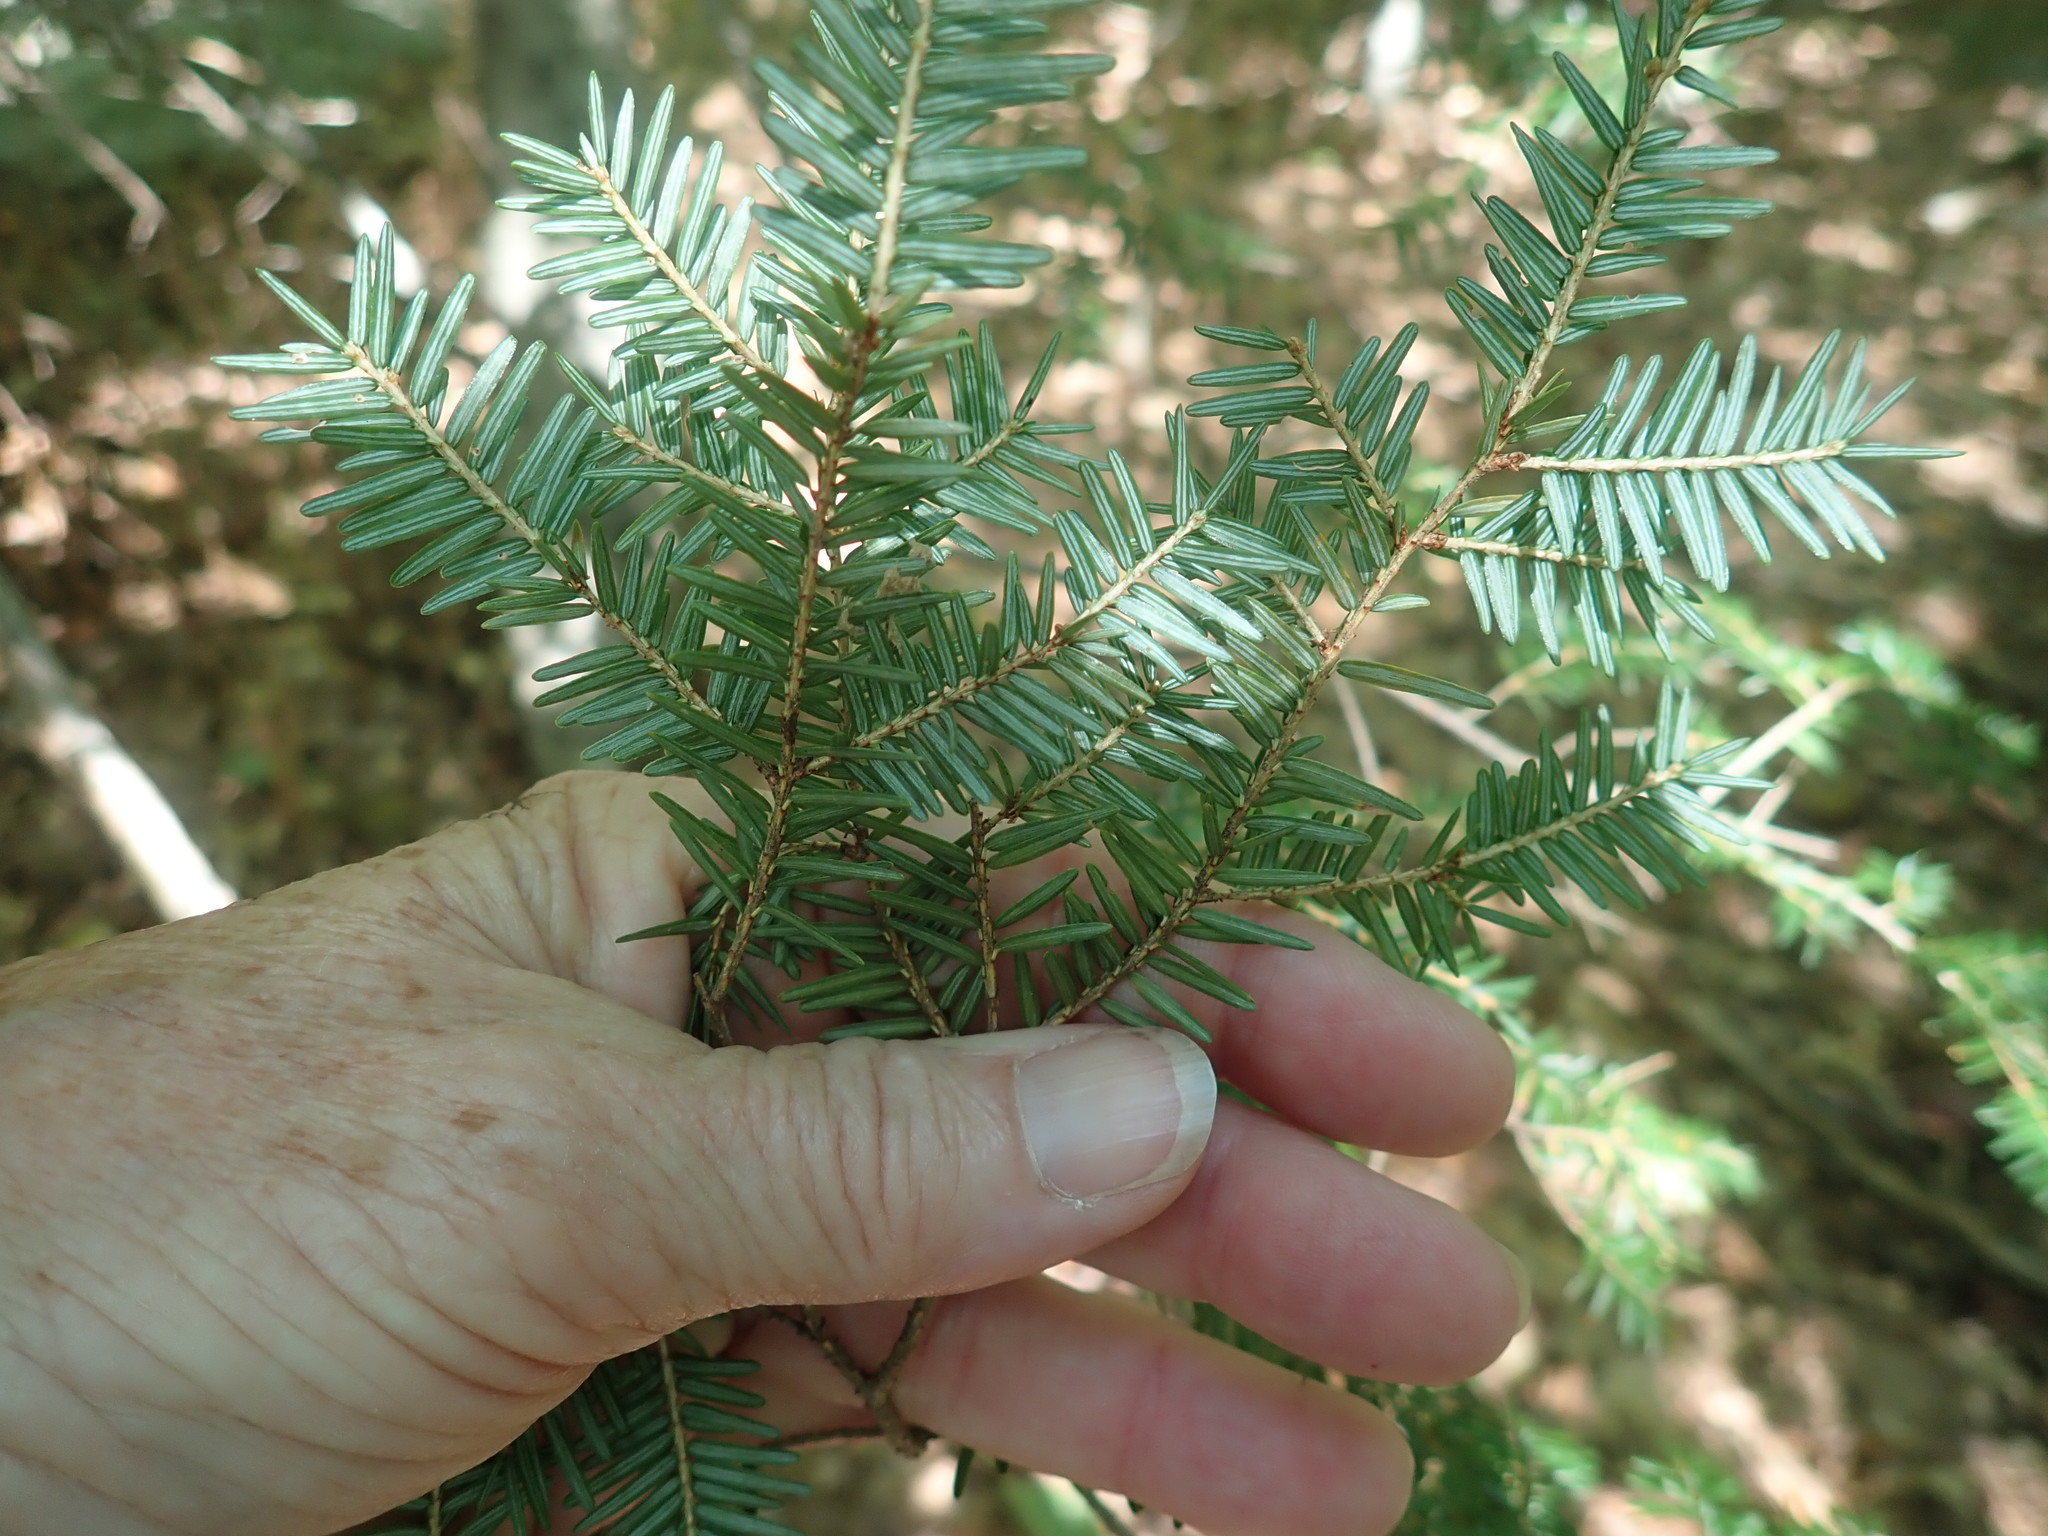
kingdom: Plantae
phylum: Tracheophyta
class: Pinopsida
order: Pinales
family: Pinaceae
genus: Tsuga
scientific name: Tsuga canadensis
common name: Eastern hemlock
